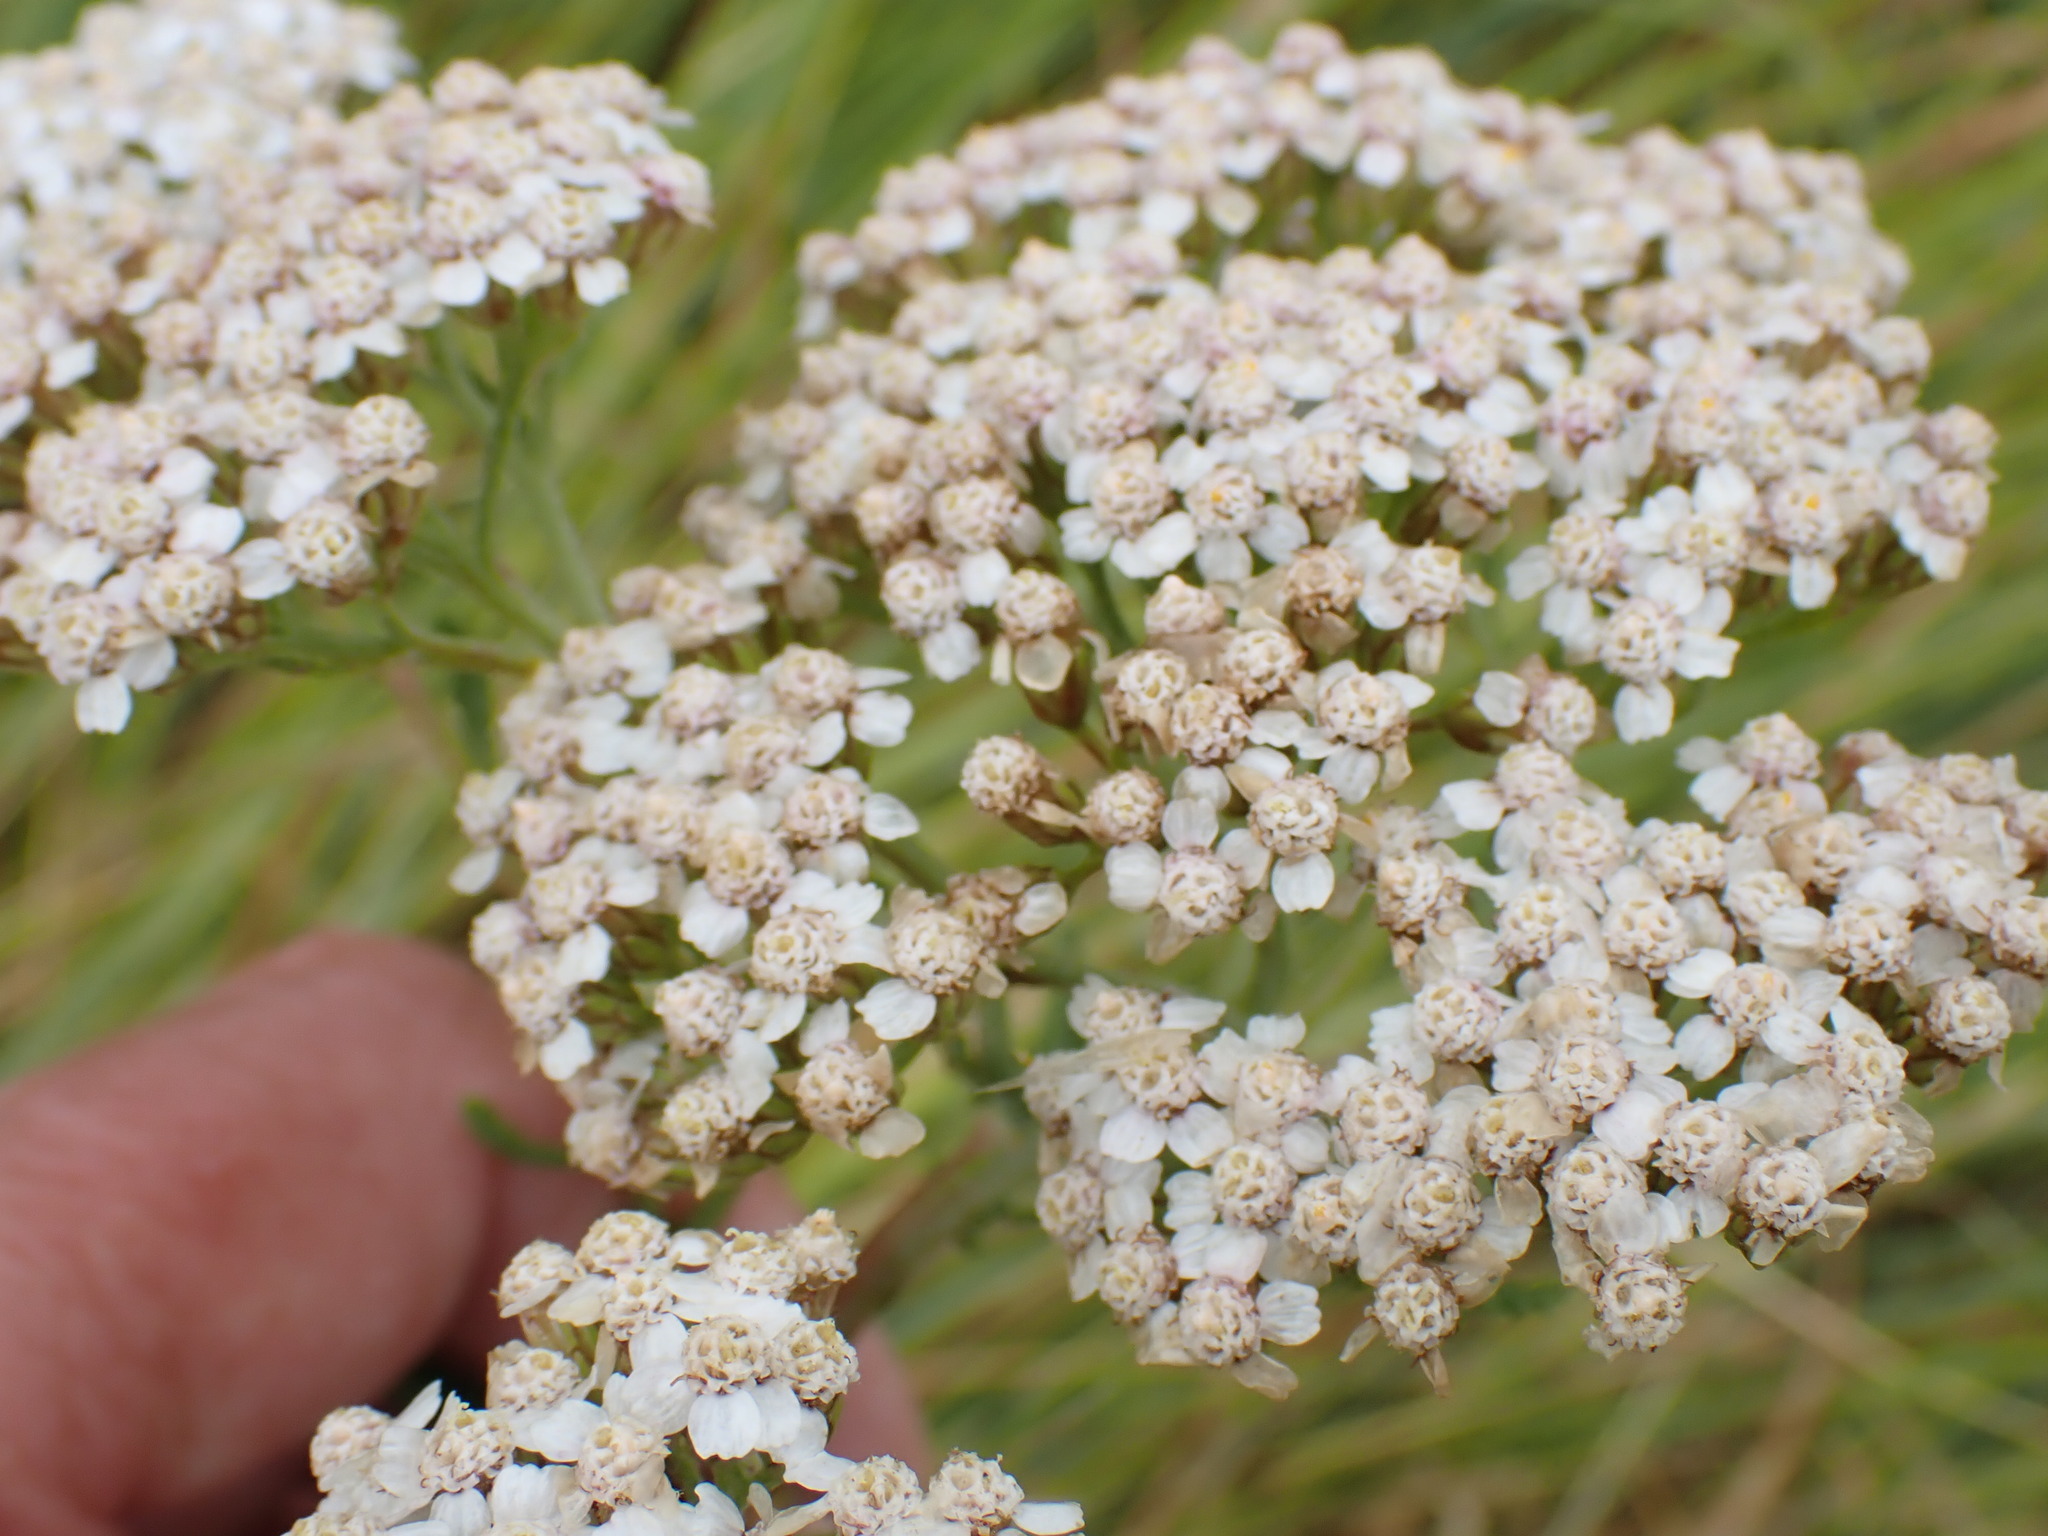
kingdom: Plantae
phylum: Tracheophyta
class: Magnoliopsida
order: Asterales
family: Asteraceae
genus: Achillea
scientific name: Achillea millefolium
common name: Yarrow
